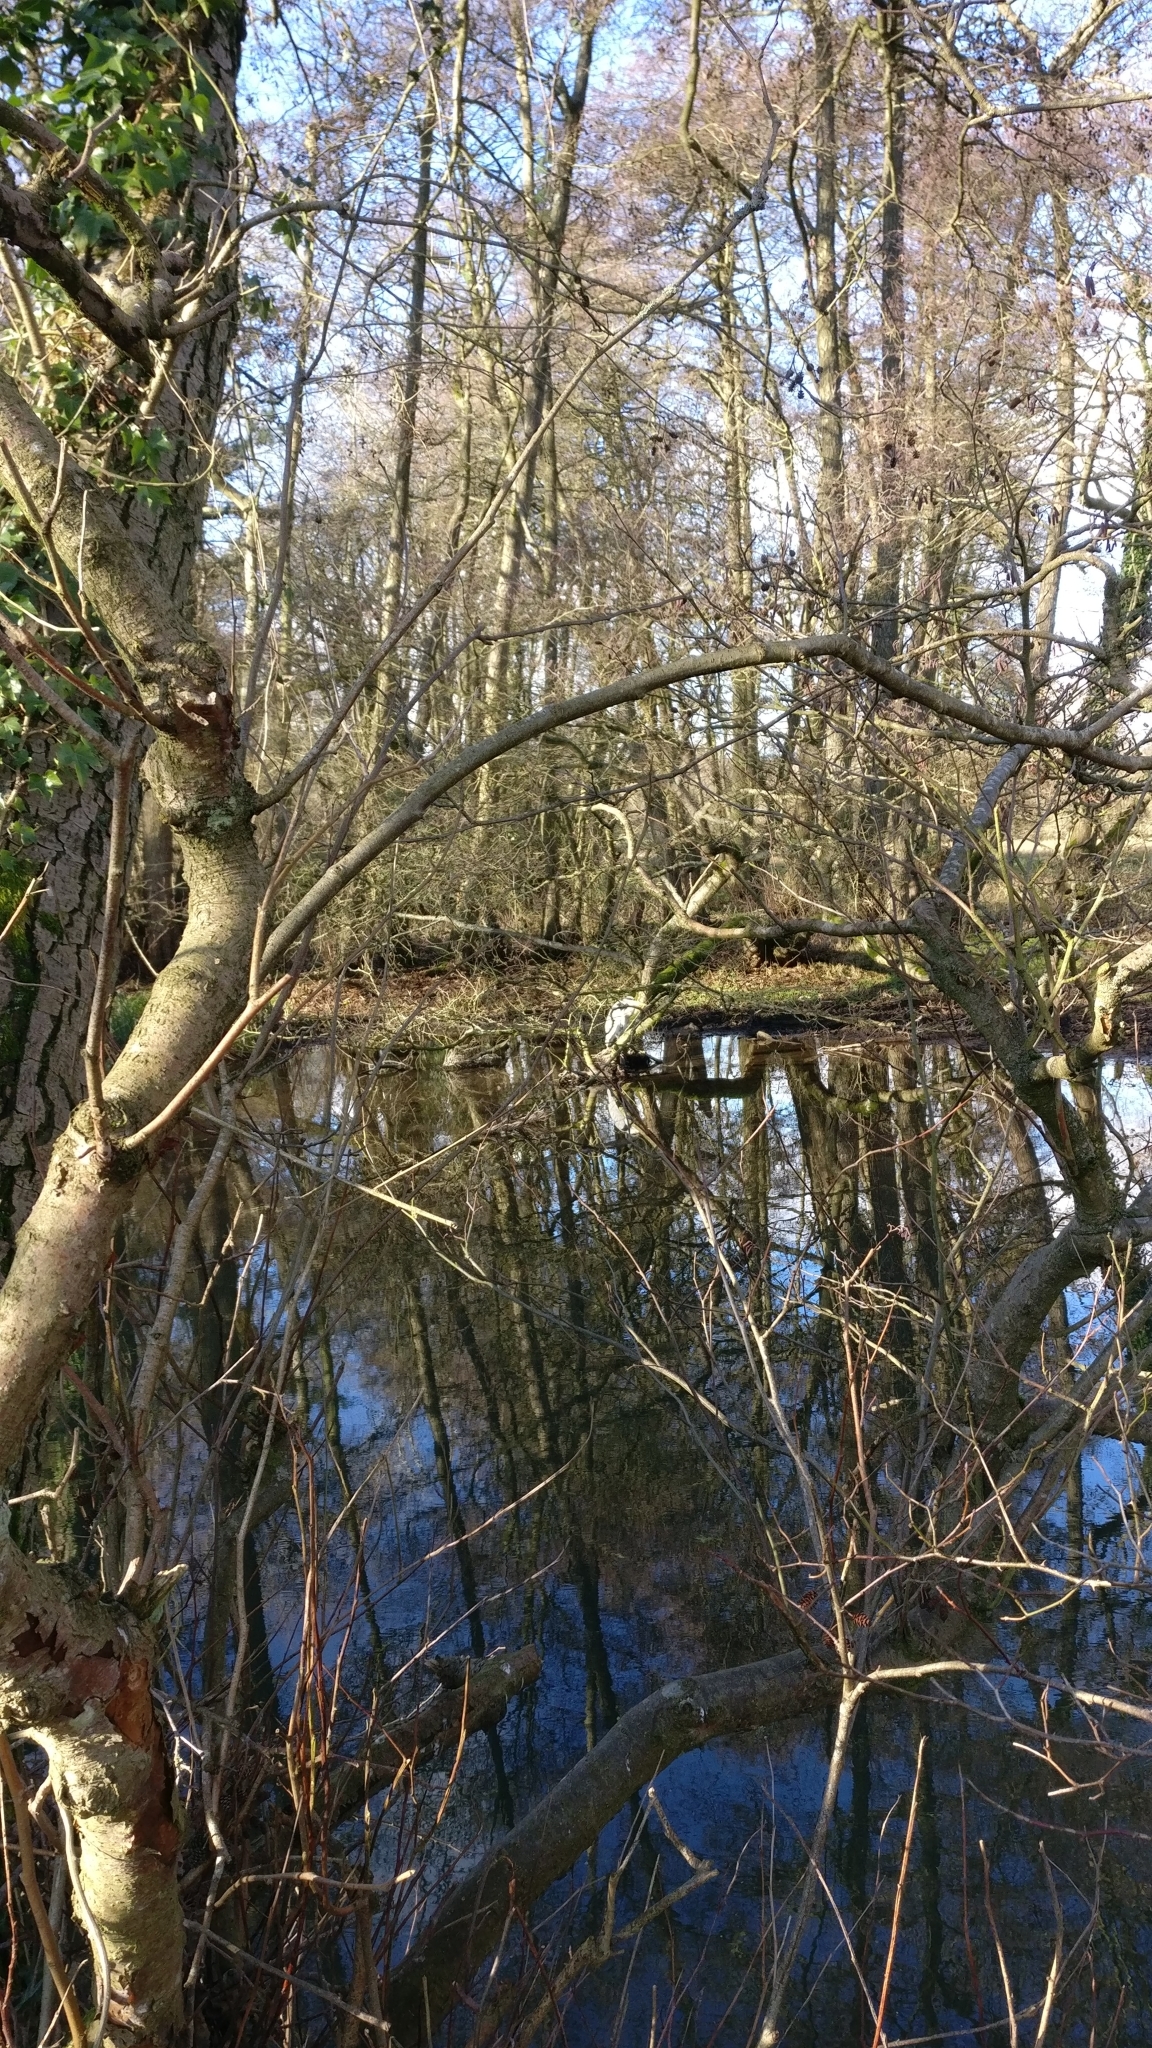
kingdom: Animalia
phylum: Chordata
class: Aves
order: Pelecaniformes
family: Ardeidae
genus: Ardea
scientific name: Ardea cinerea
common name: Grey heron
